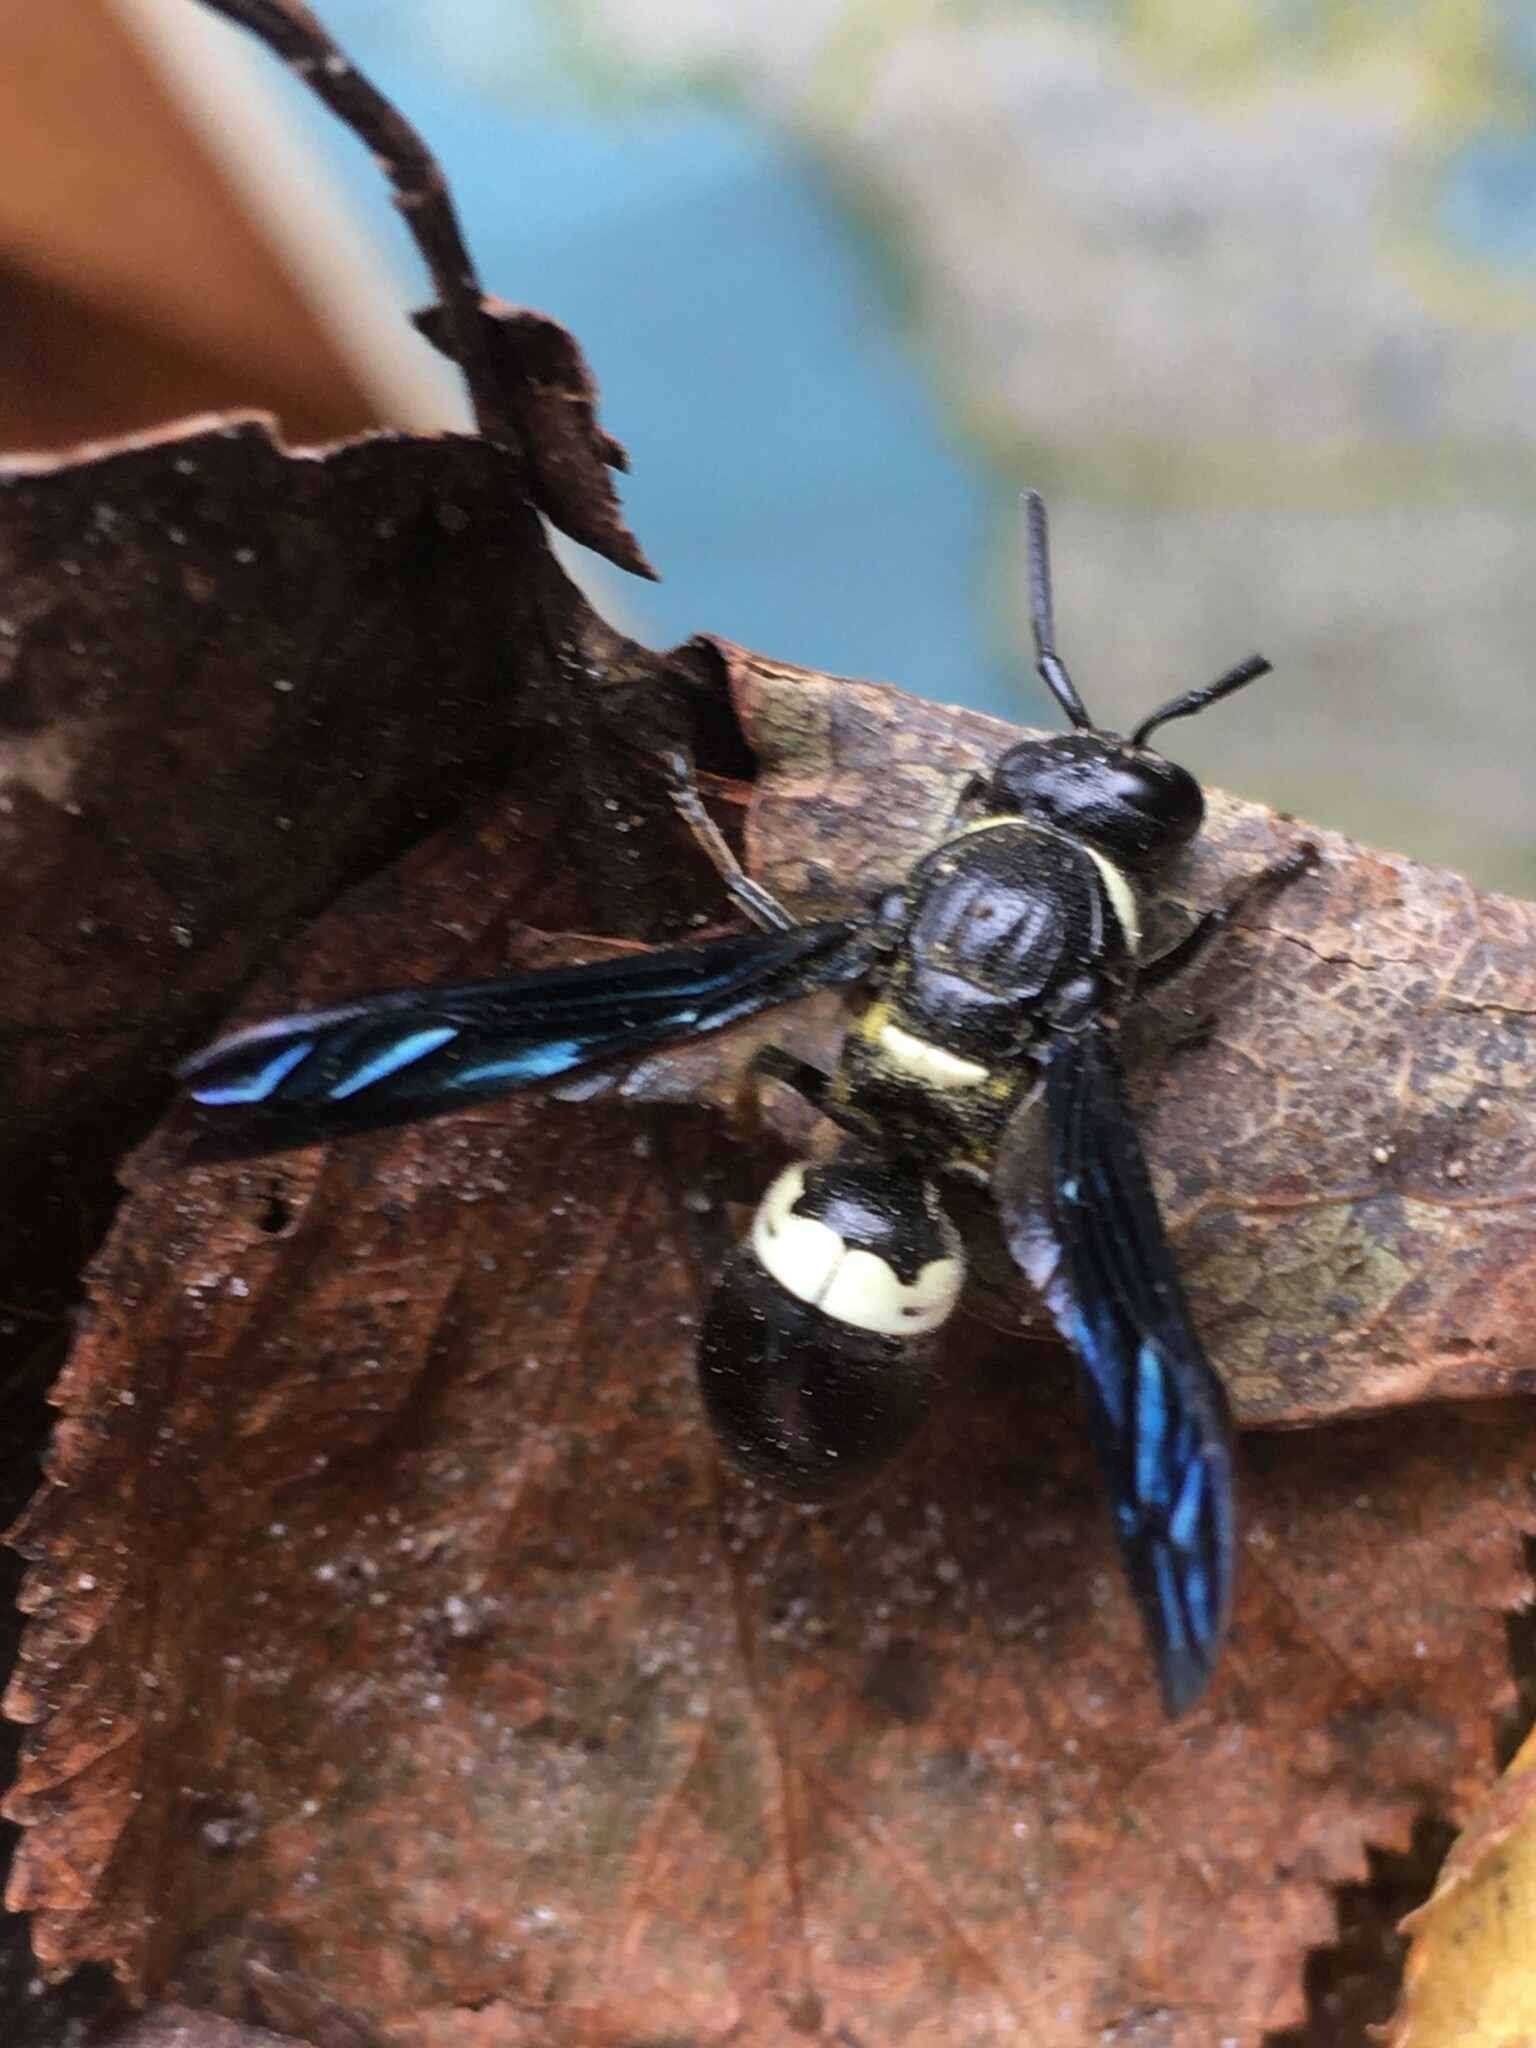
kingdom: Animalia
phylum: Arthropoda
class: Insecta
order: Hymenoptera
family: Eumenidae
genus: Monobia
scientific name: Monobia quadridens
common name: Four-toothed mason wasp
